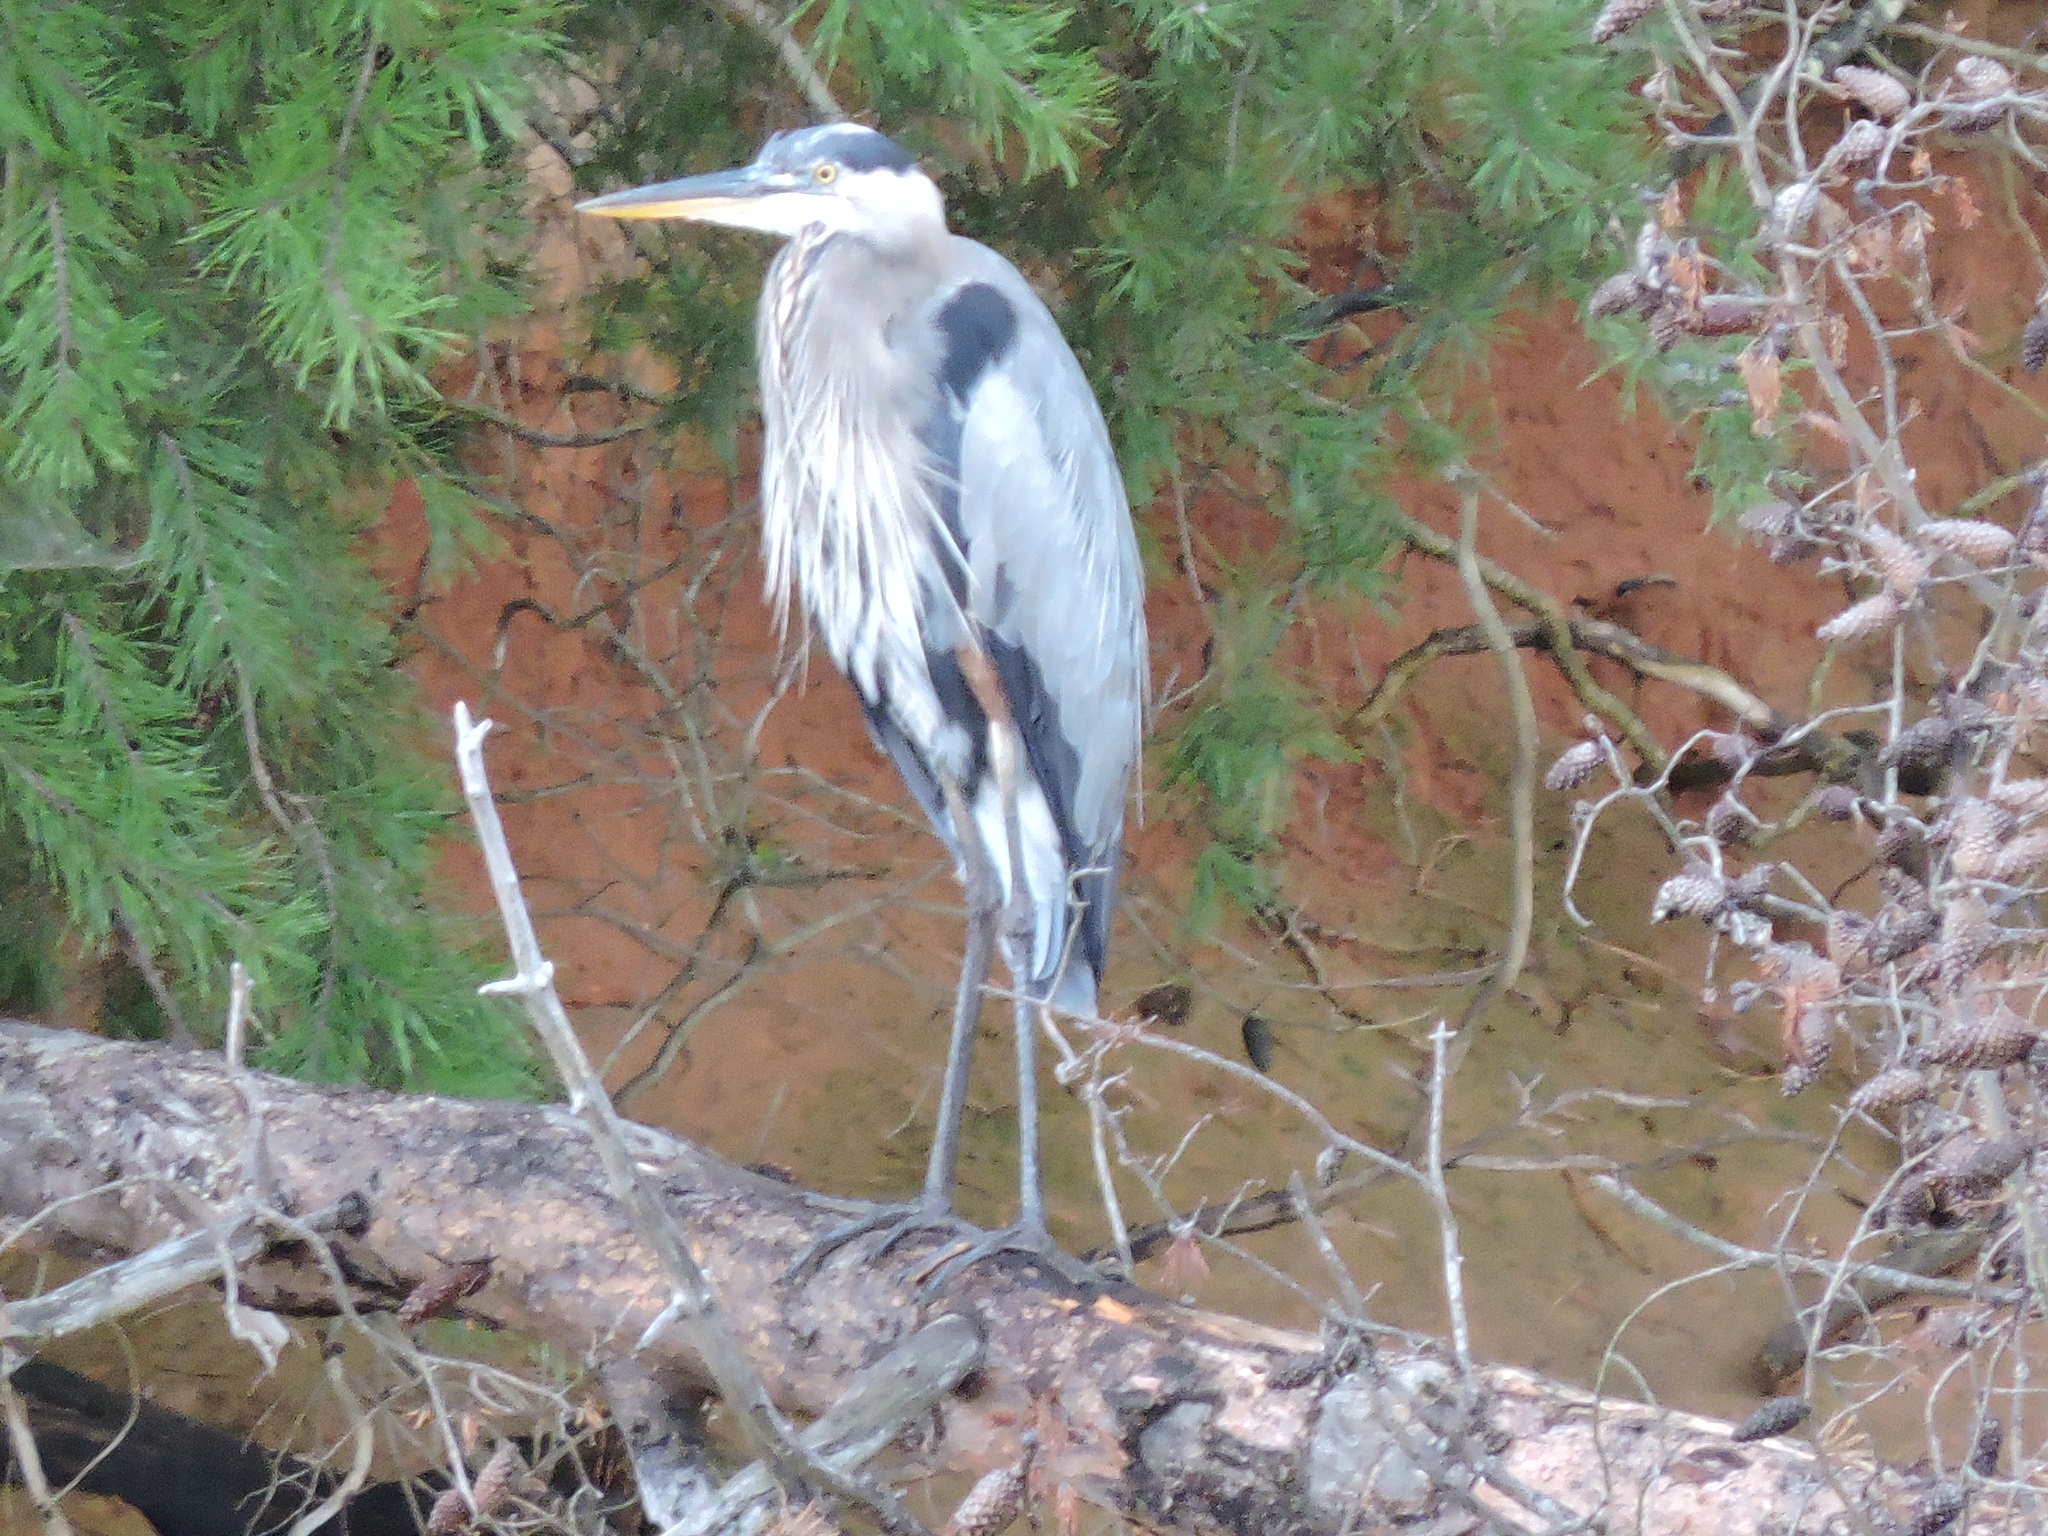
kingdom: Animalia
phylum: Chordata
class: Aves
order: Pelecaniformes
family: Ardeidae
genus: Ardea
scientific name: Ardea herodias
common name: Great blue heron
